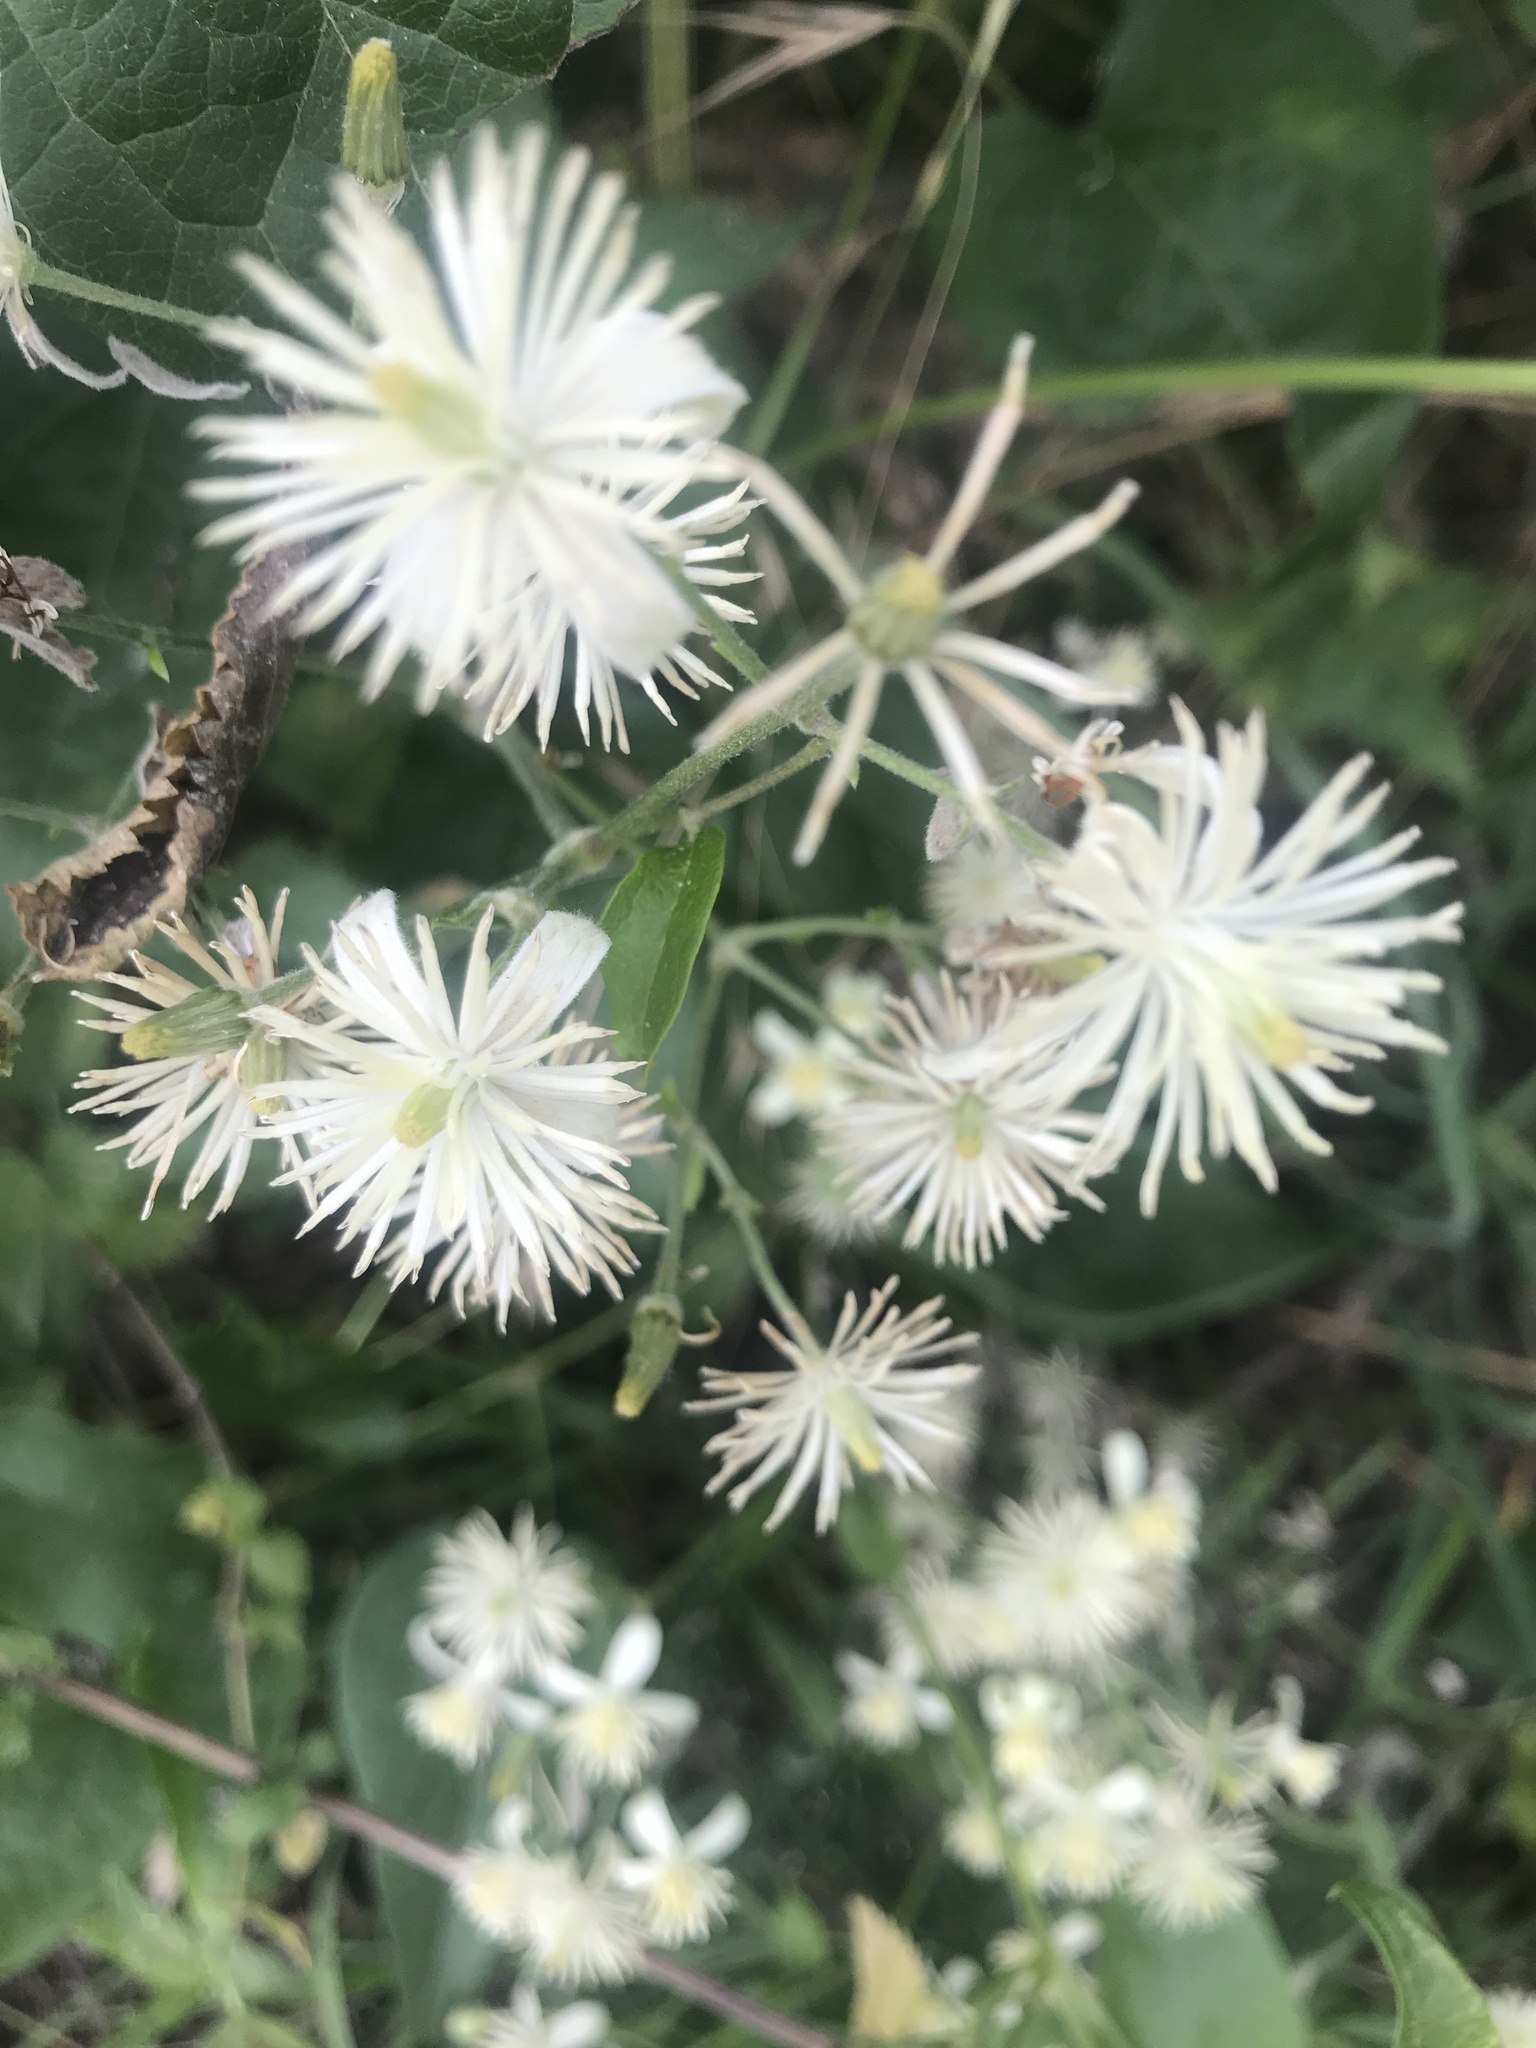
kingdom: Plantae
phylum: Tracheophyta
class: Magnoliopsida
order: Ranunculales
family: Ranunculaceae
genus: Clematis
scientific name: Clematis vitalba
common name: Evergreen clematis
